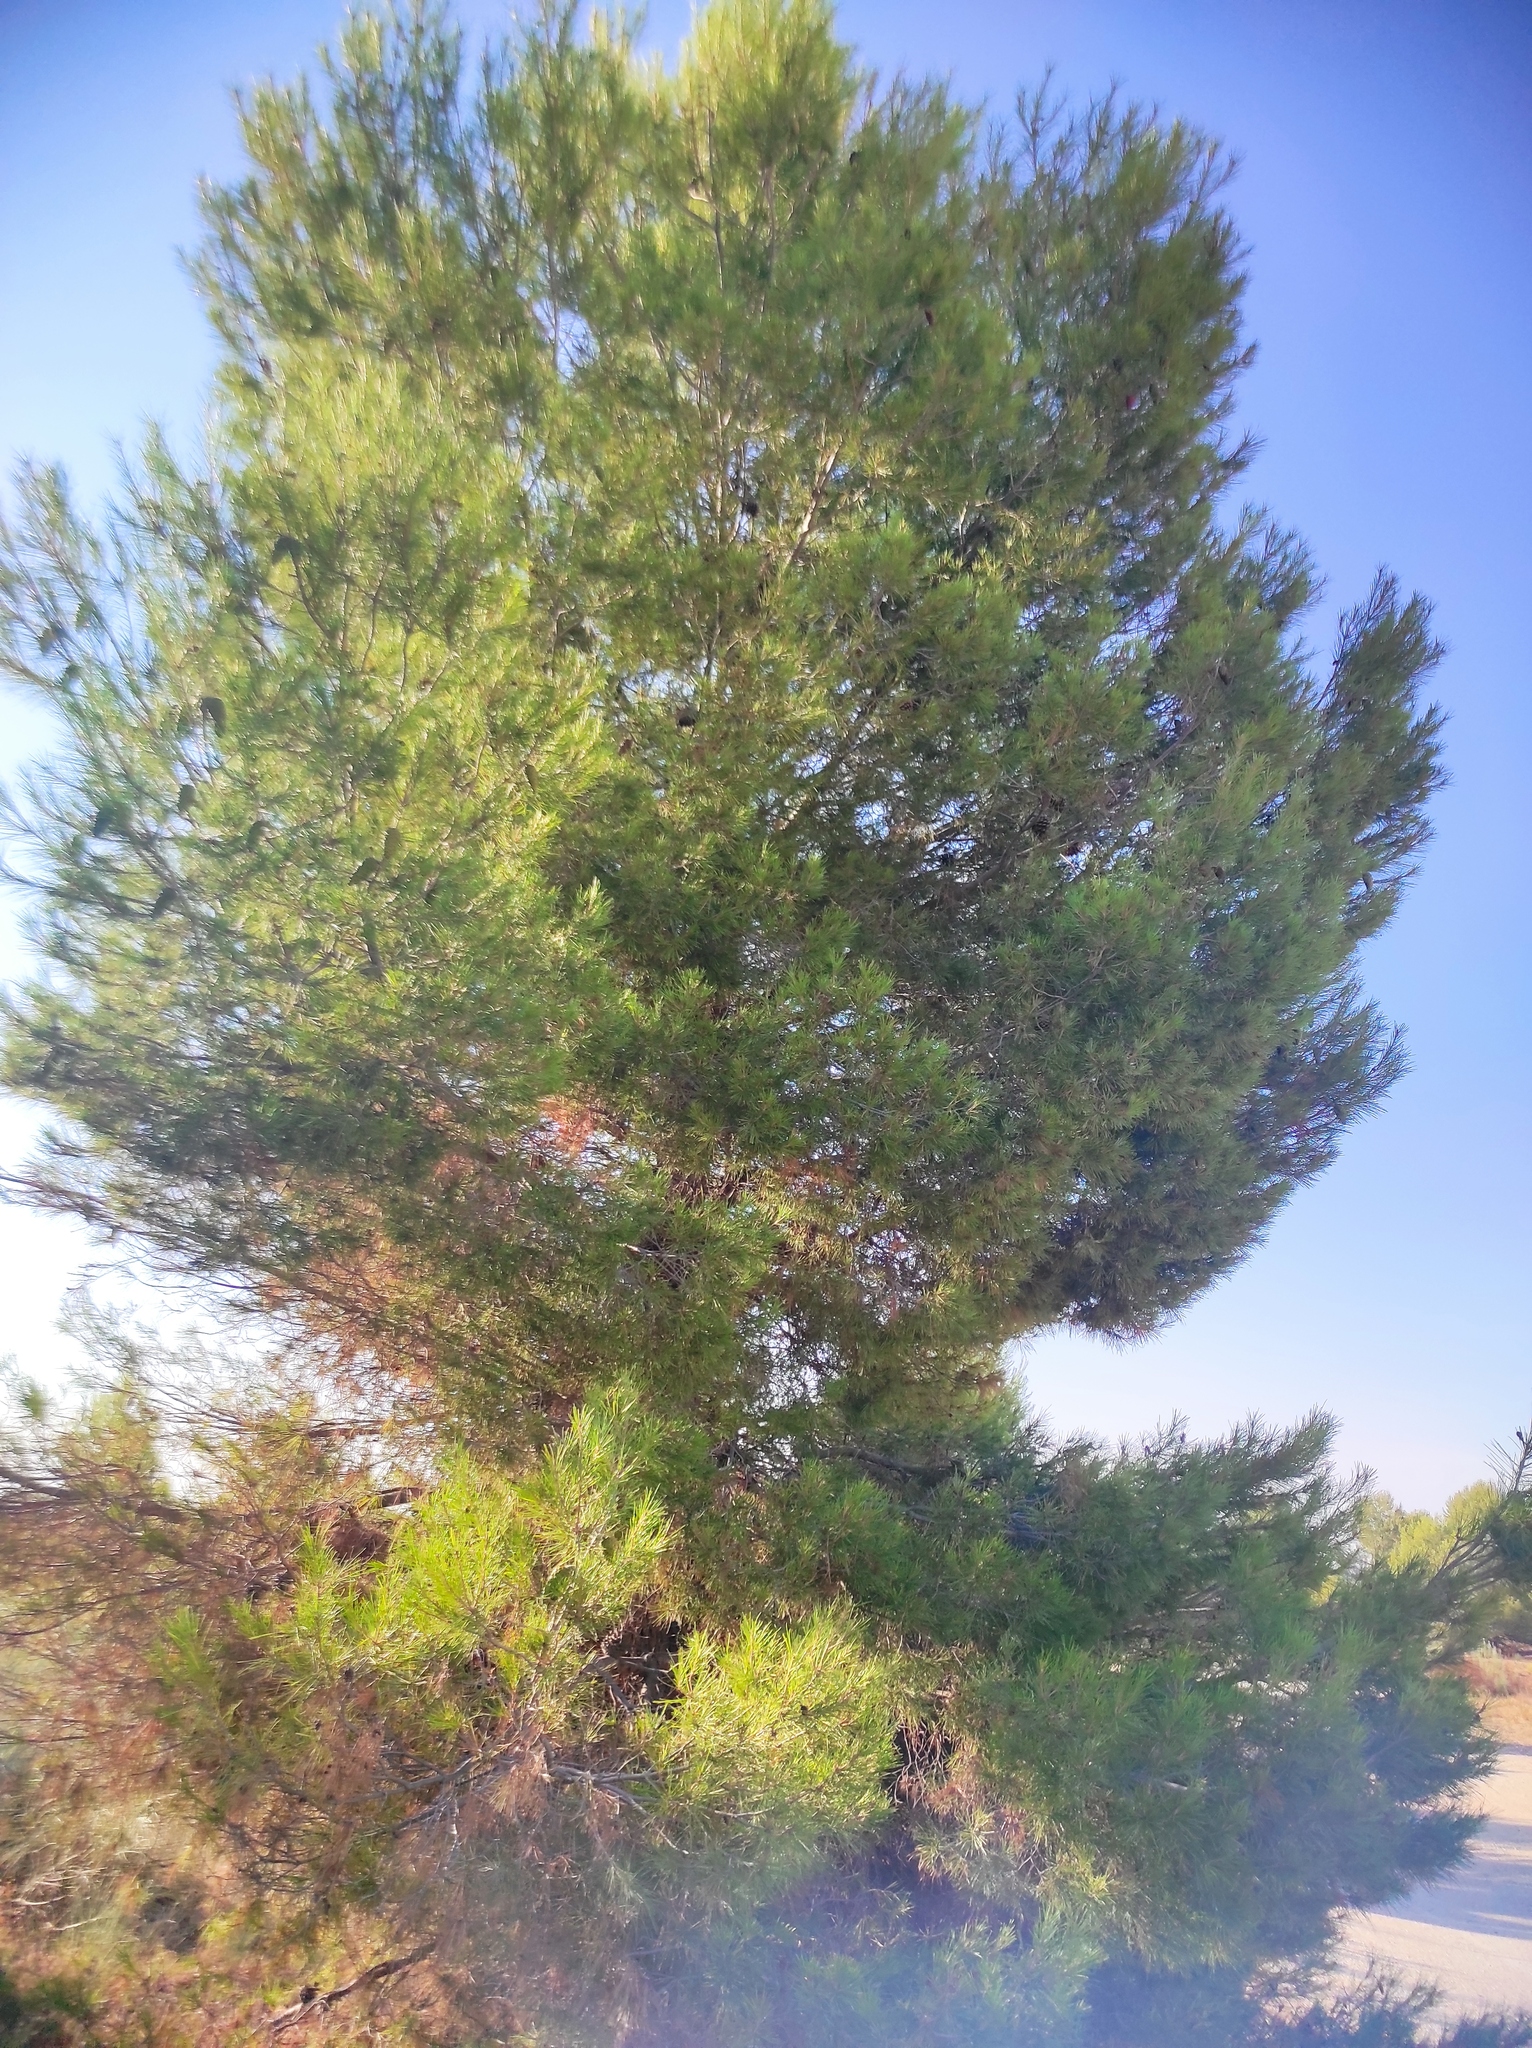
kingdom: Plantae
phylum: Tracheophyta
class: Pinopsida
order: Pinales
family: Pinaceae
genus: Pinus
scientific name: Pinus halepensis
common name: Aleppo pine
